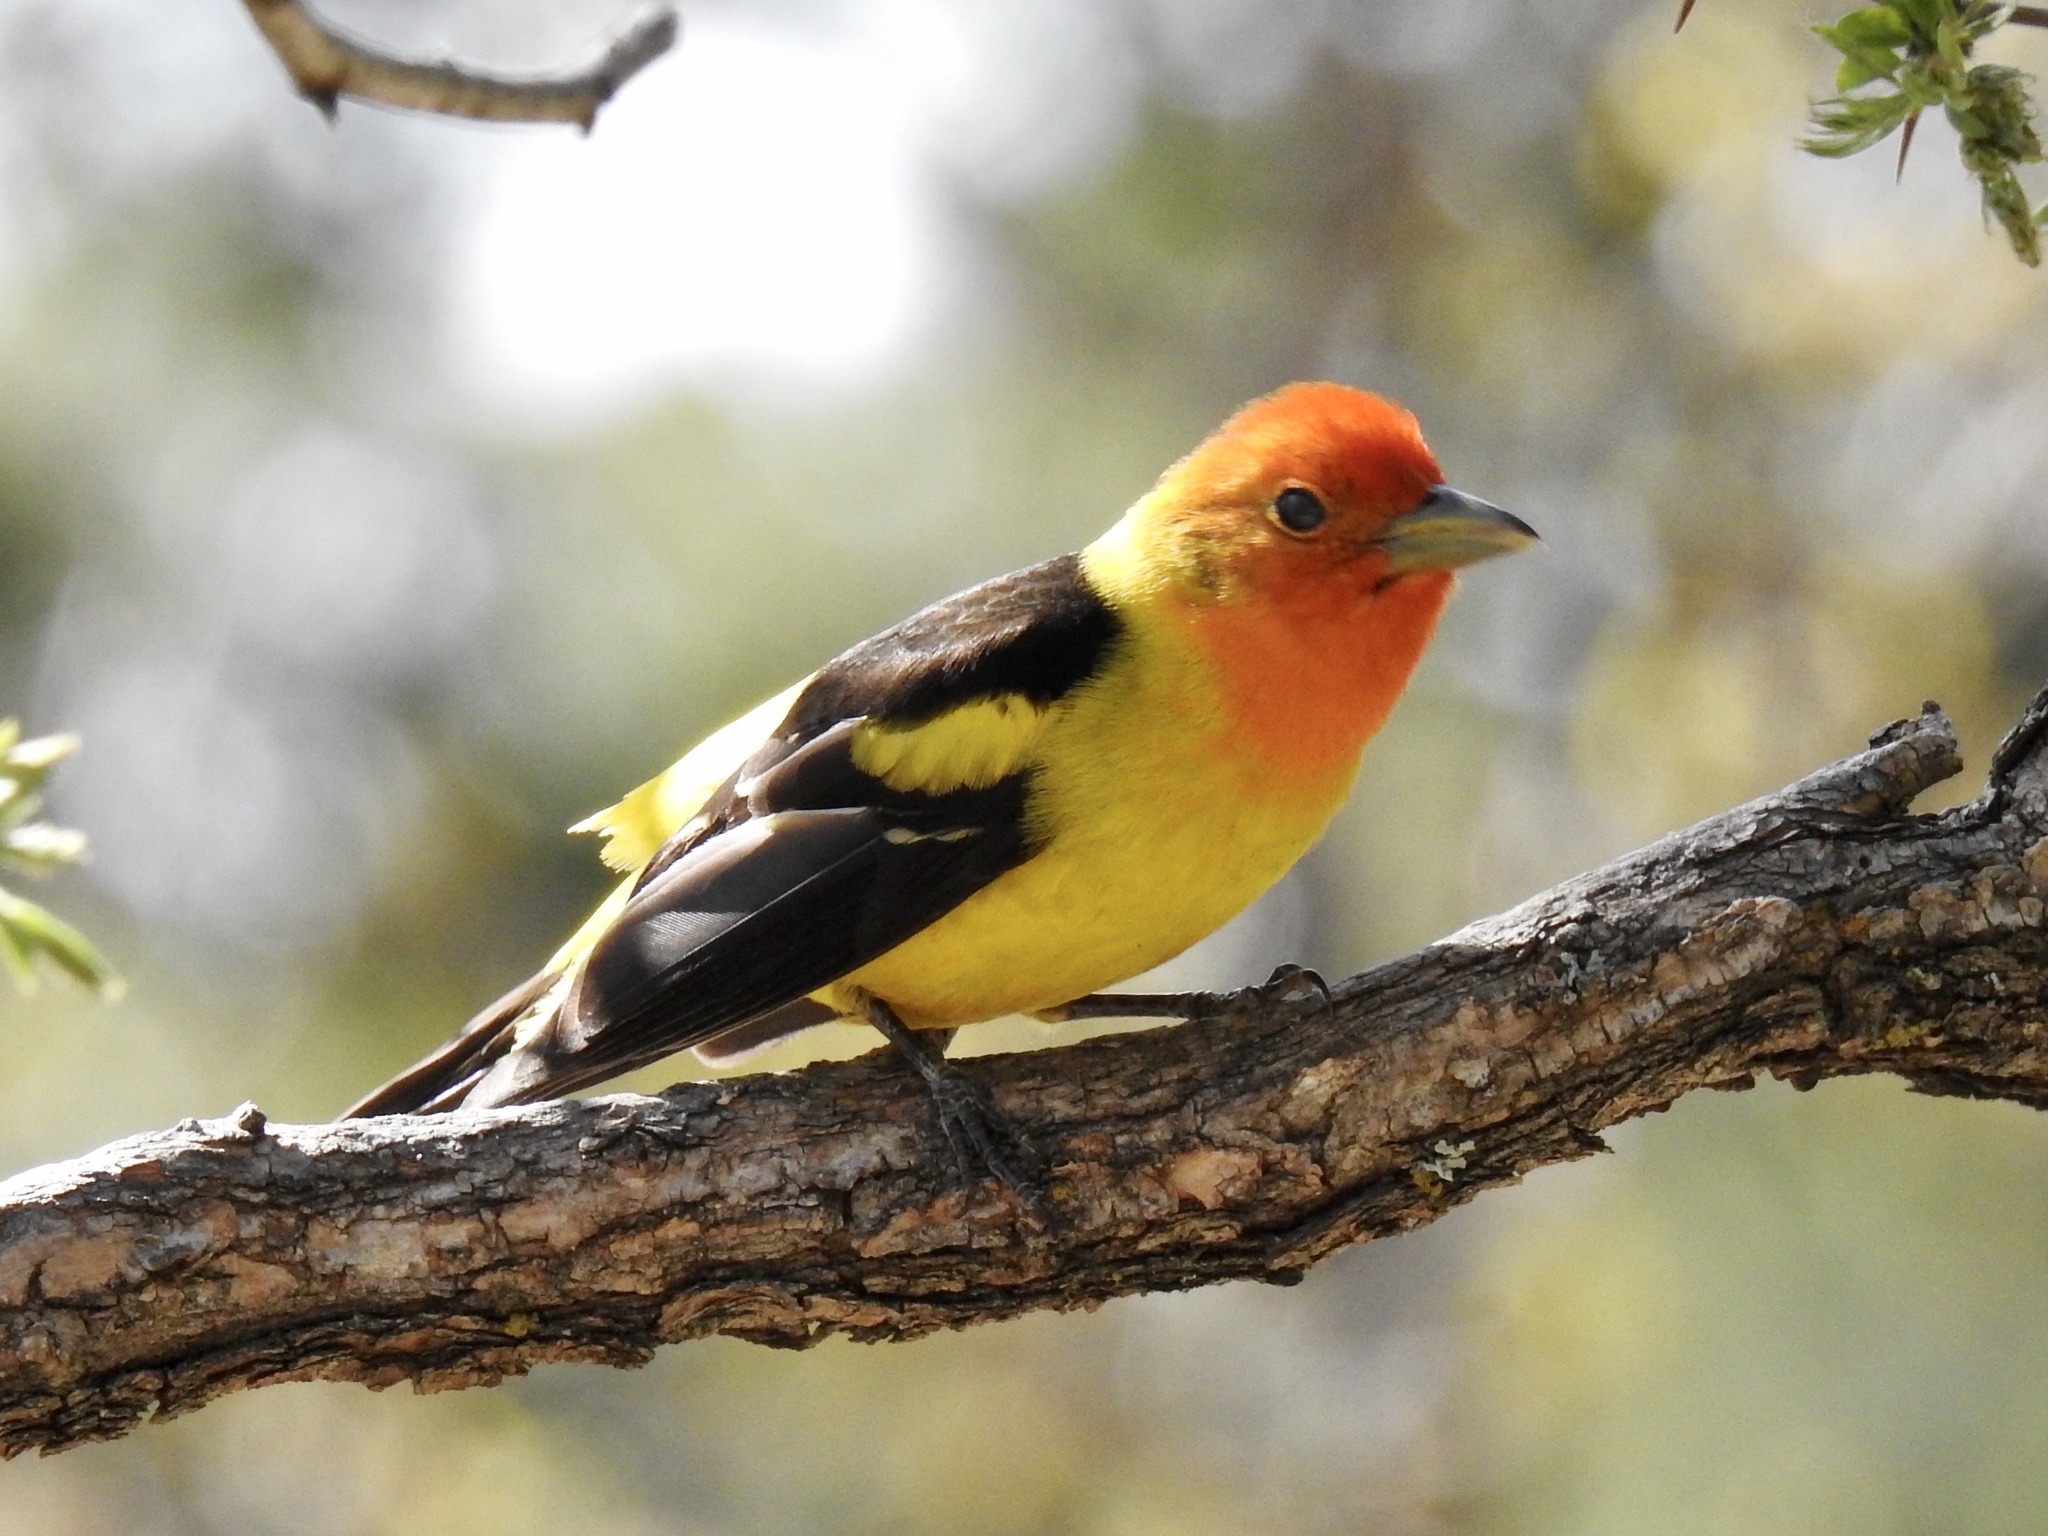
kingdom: Animalia
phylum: Chordata
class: Aves
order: Passeriformes
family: Cardinalidae
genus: Piranga
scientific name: Piranga ludoviciana
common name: Western tanager
